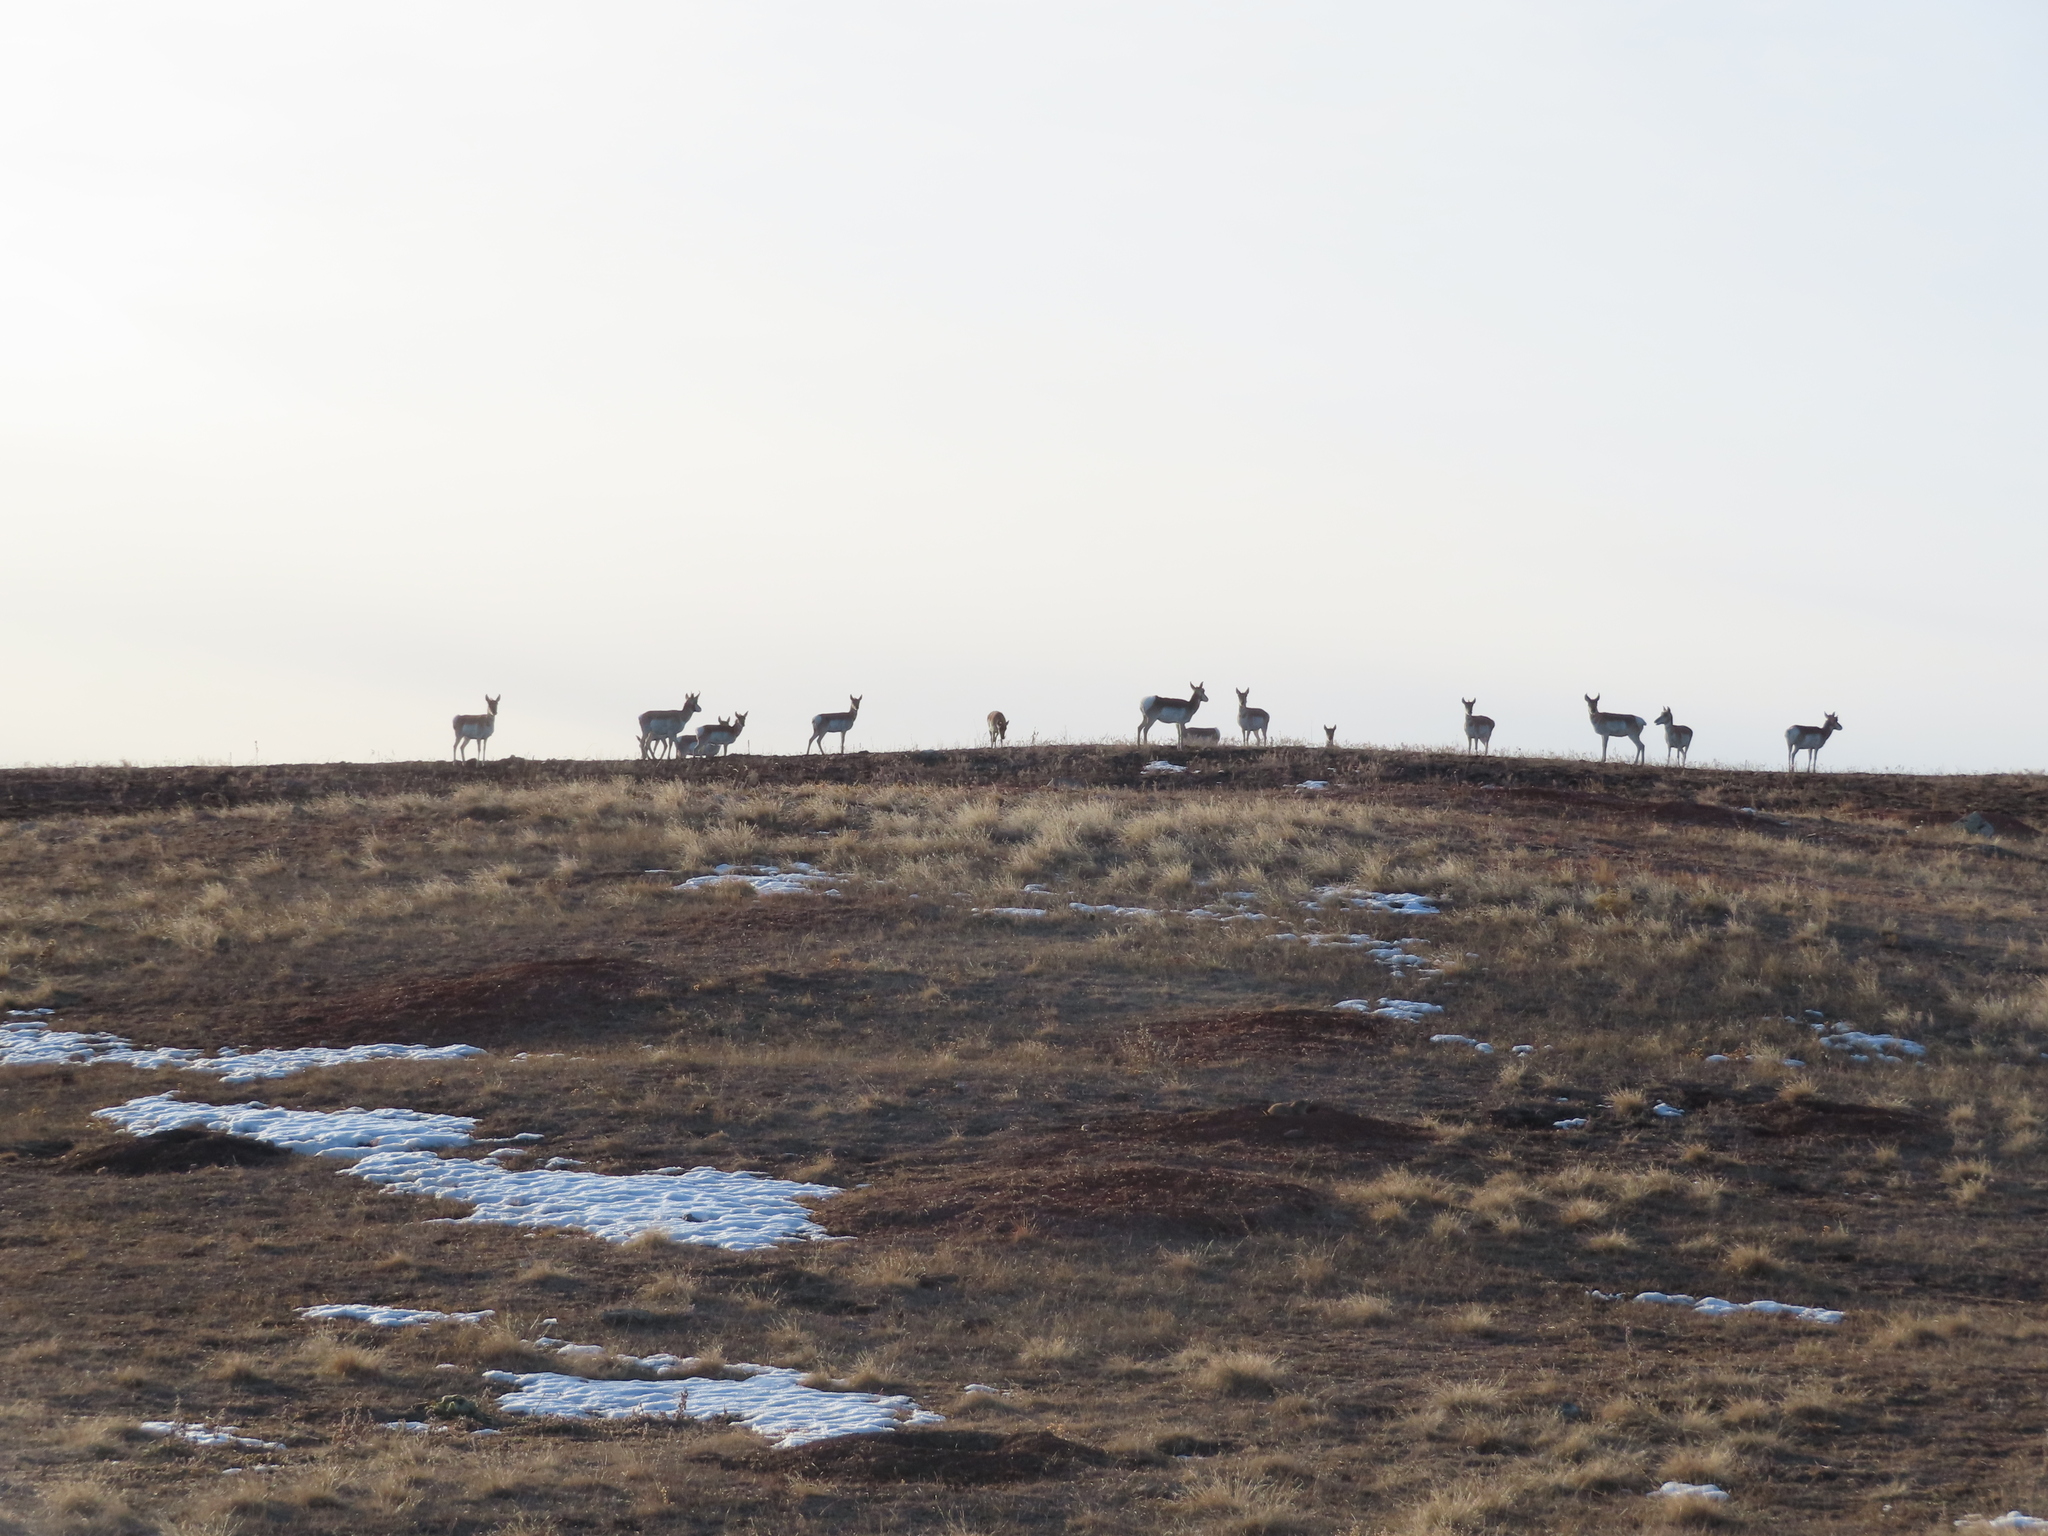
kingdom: Animalia
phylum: Chordata
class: Mammalia
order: Artiodactyla
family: Antilocapridae
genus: Antilocapra
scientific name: Antilocapra americana
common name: Pronghorn
